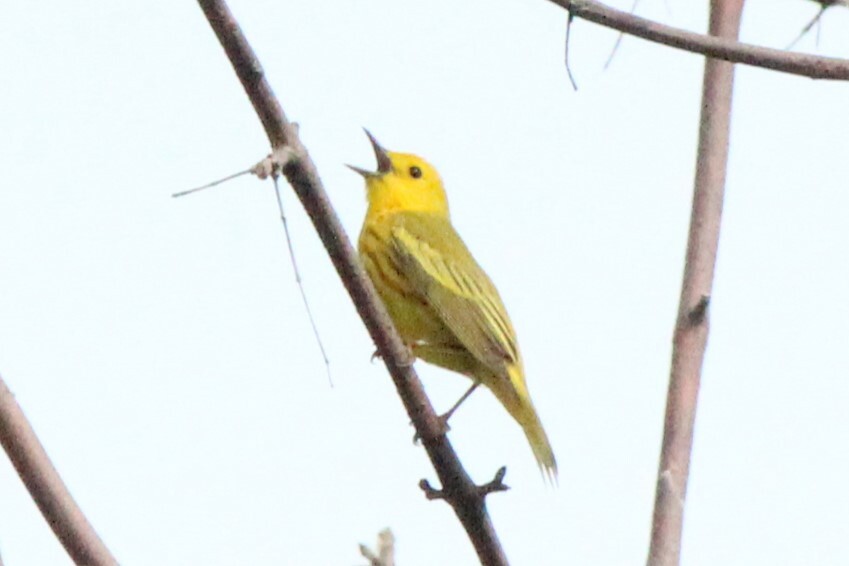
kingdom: Animalia
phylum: Chordata
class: Aves
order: Passeriformes
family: Parulidae
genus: Setophaga
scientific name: Setophaga petechia
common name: Yellow warbler
